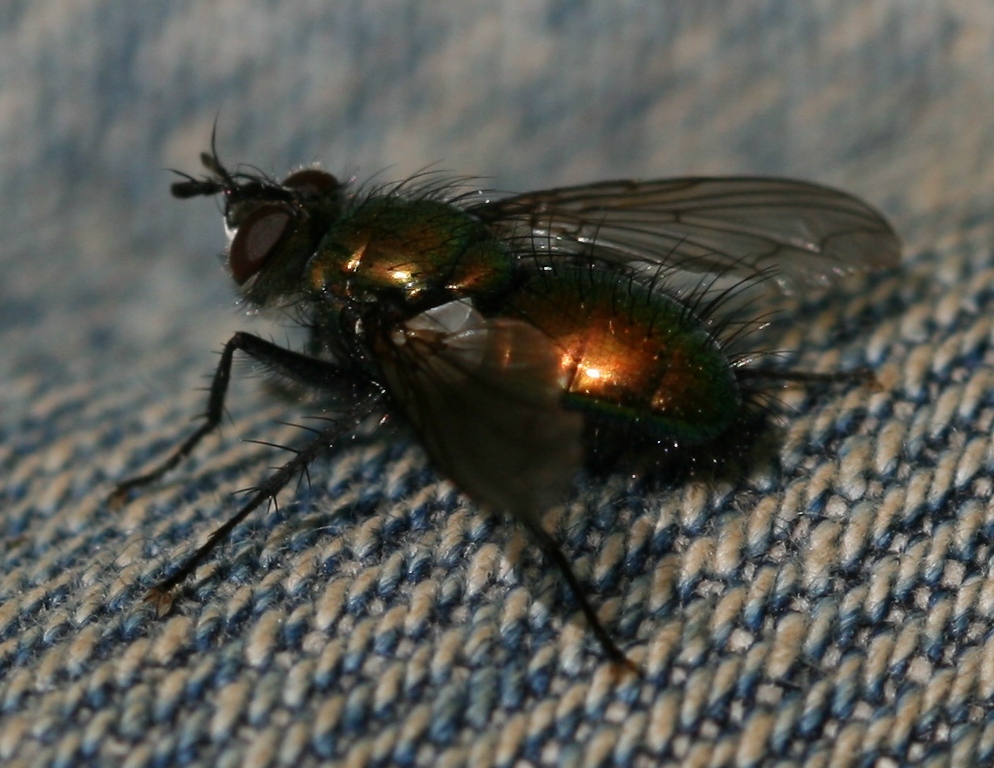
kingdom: Animalia
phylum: Arthropoda
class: Insecta
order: Diptera
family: Tachinidae
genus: Gymnocheta
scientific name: Gymnocheta viridis
